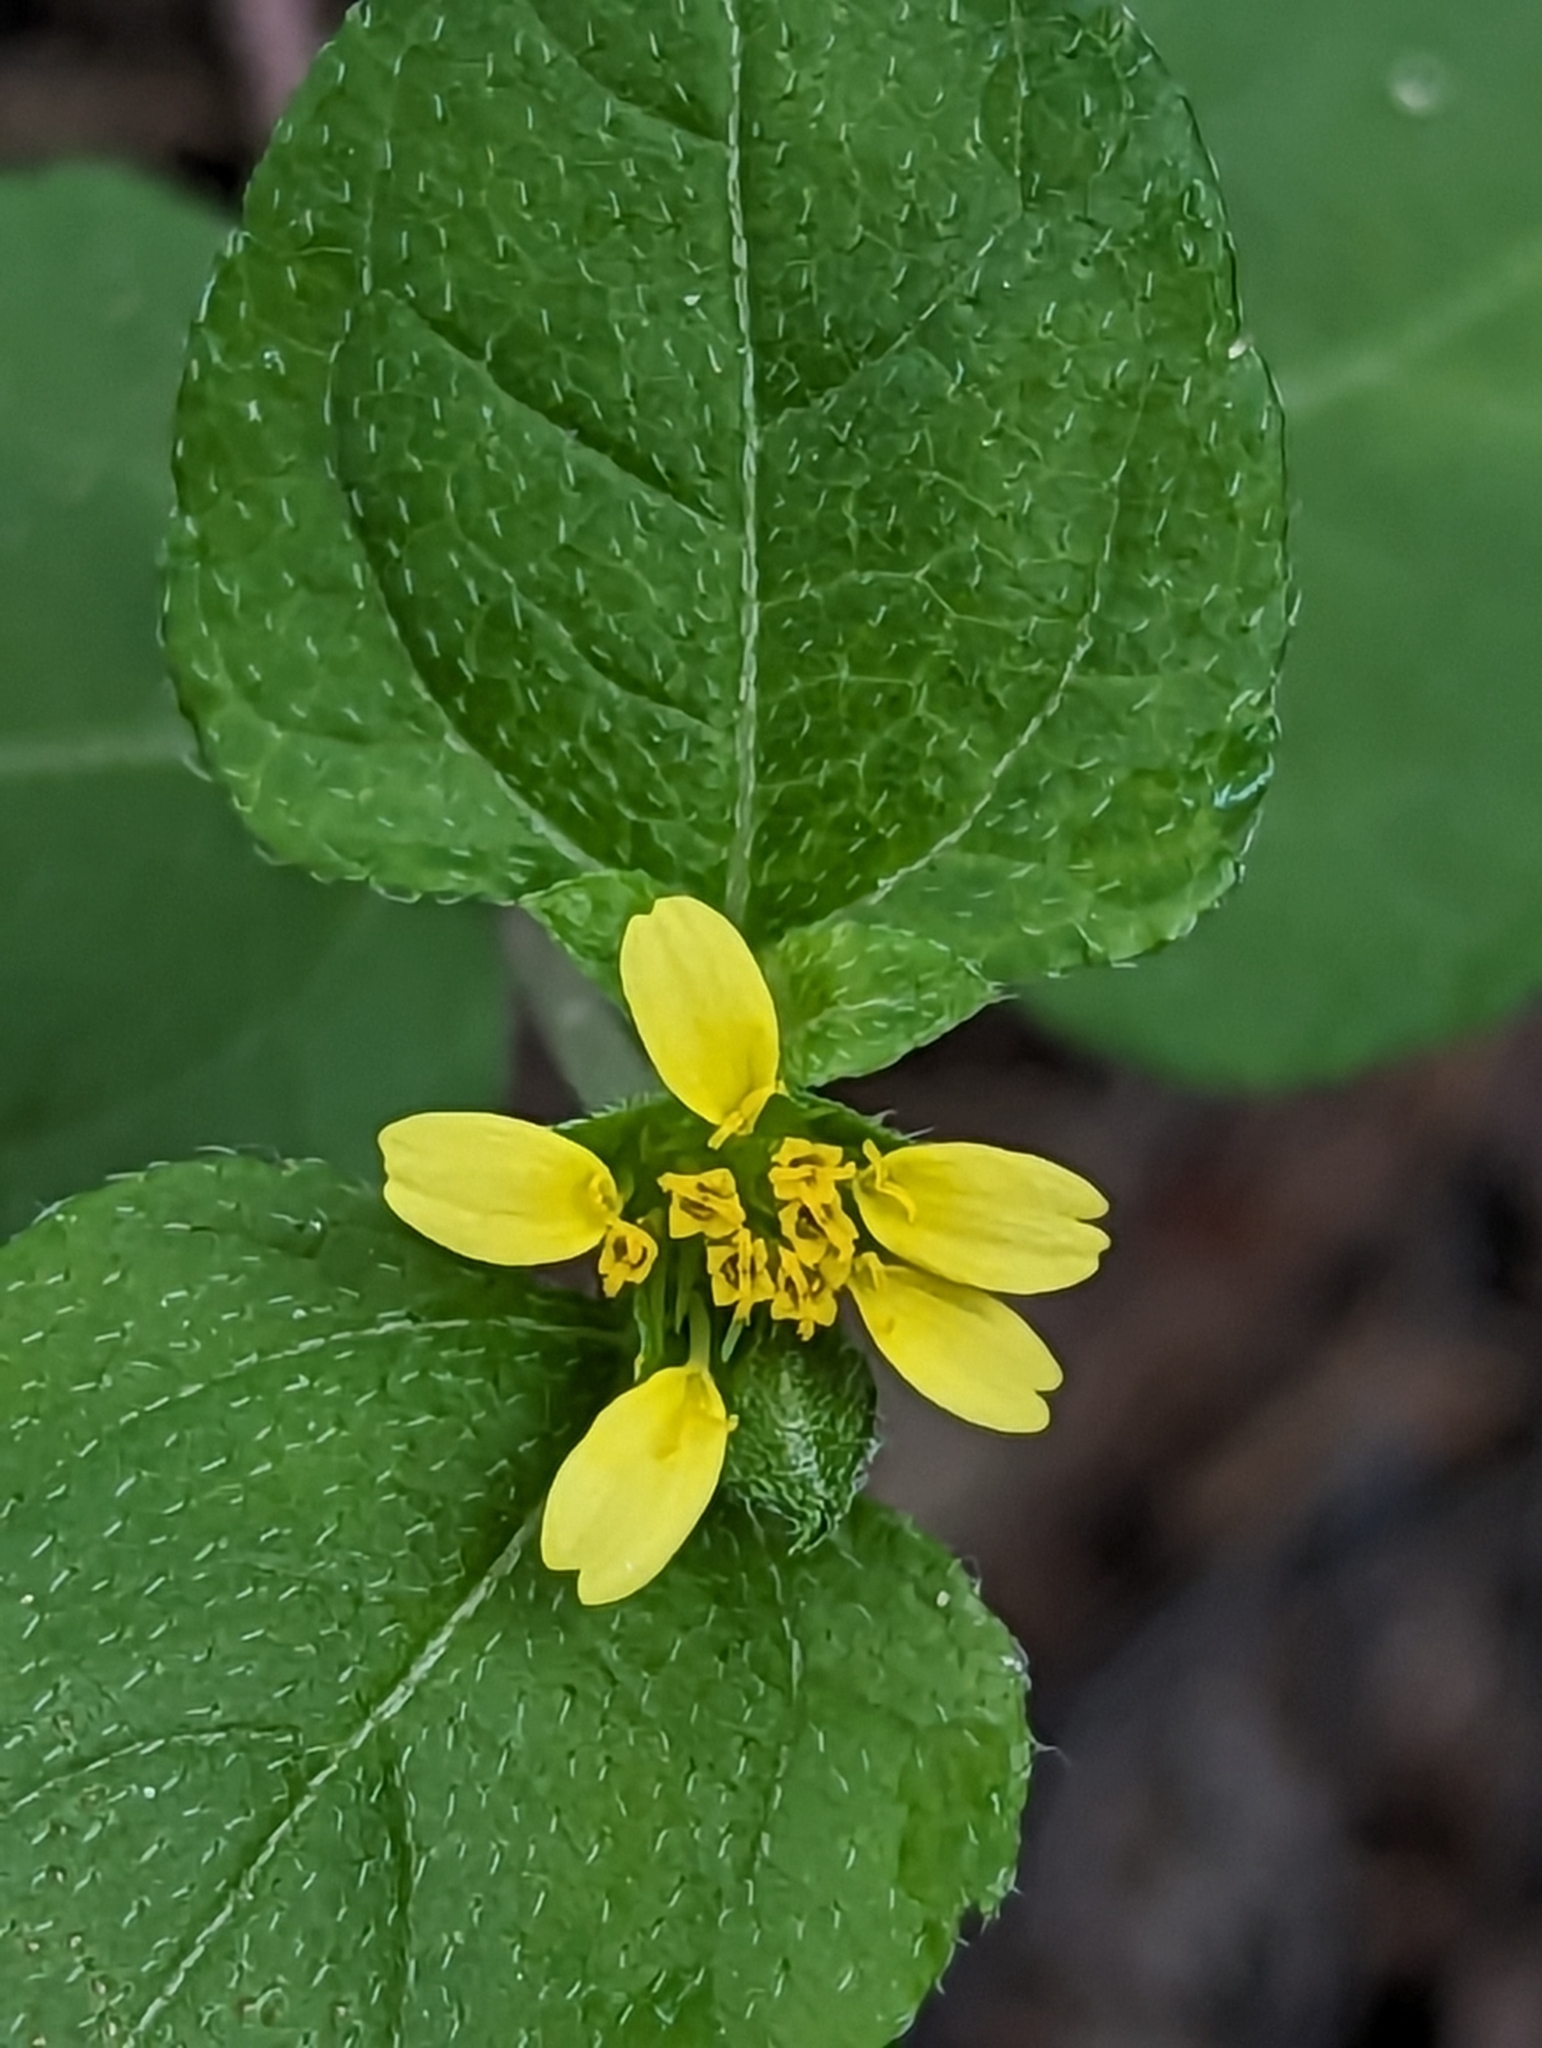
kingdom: Plantae
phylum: Tracheophyta
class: Magnoliopsida
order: Asterales
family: Asteraceae
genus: Calyptocarpus
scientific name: Calyptocarpus vialis
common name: Straggler daisy
